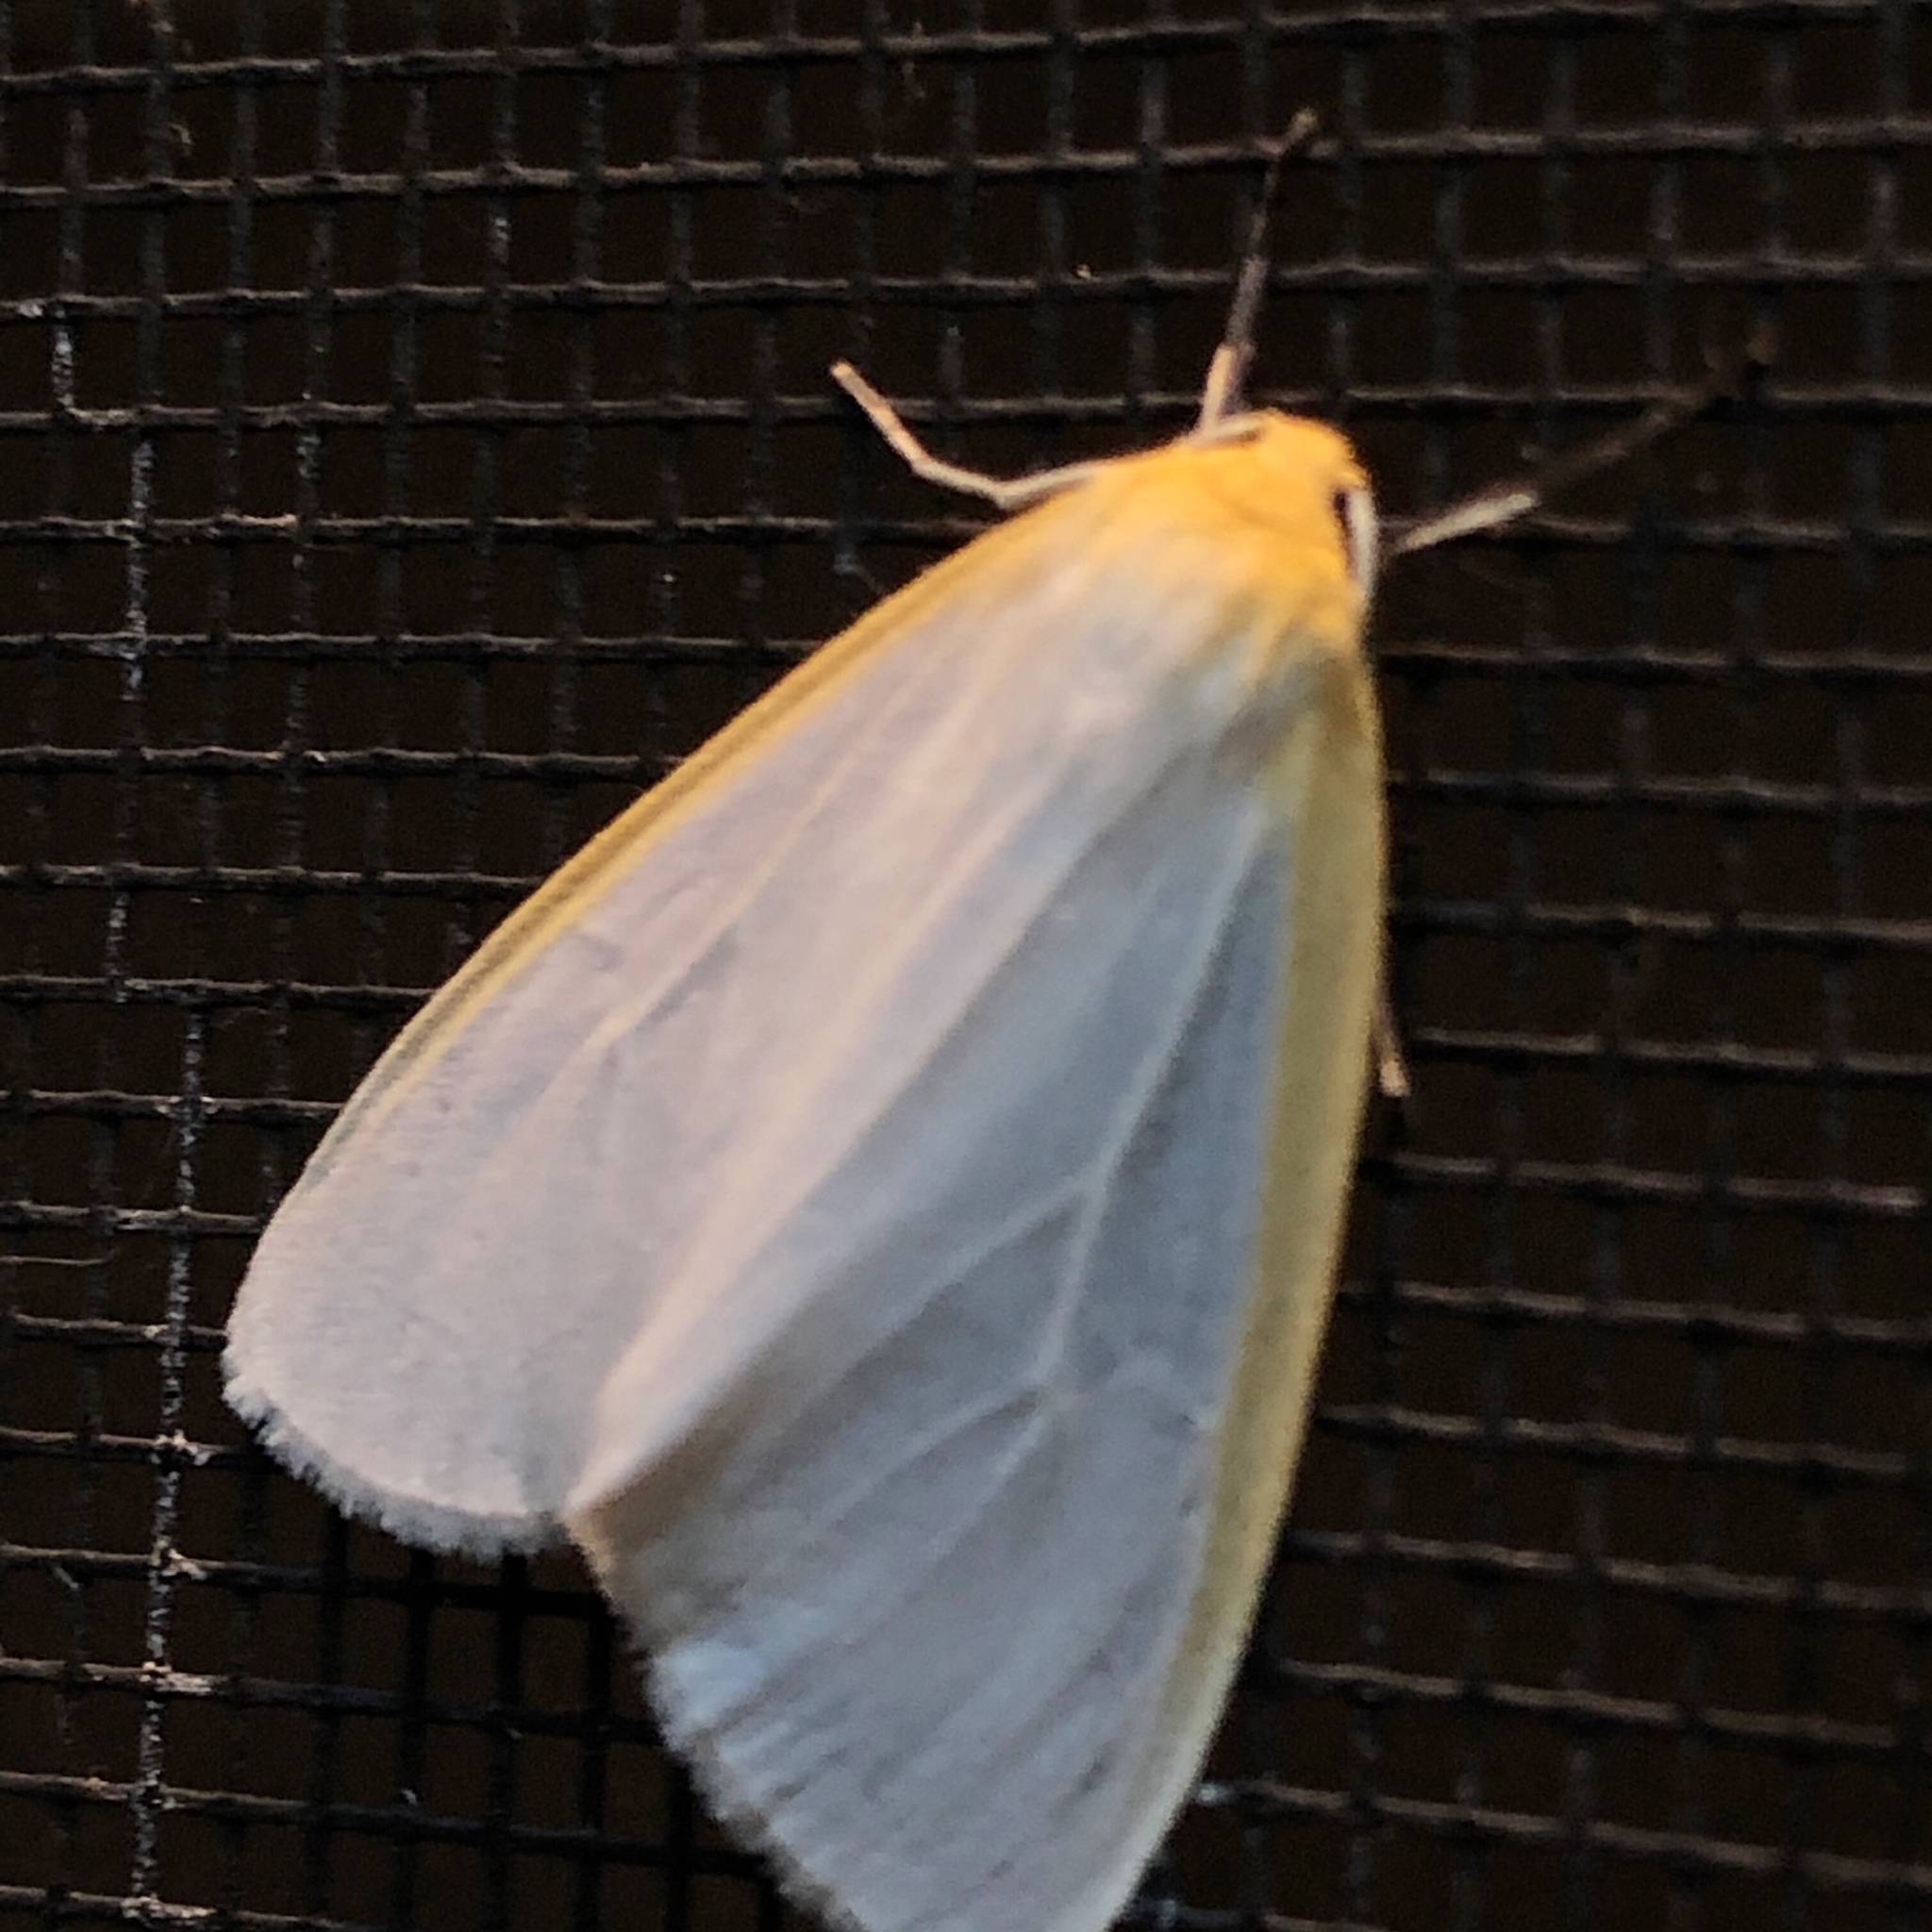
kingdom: Animalia
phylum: Arthropoda
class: Insecta
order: Lepidoptera
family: Erebidae
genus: Cycnia
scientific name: Cycnia tenera
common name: Delicate cycnia moth
